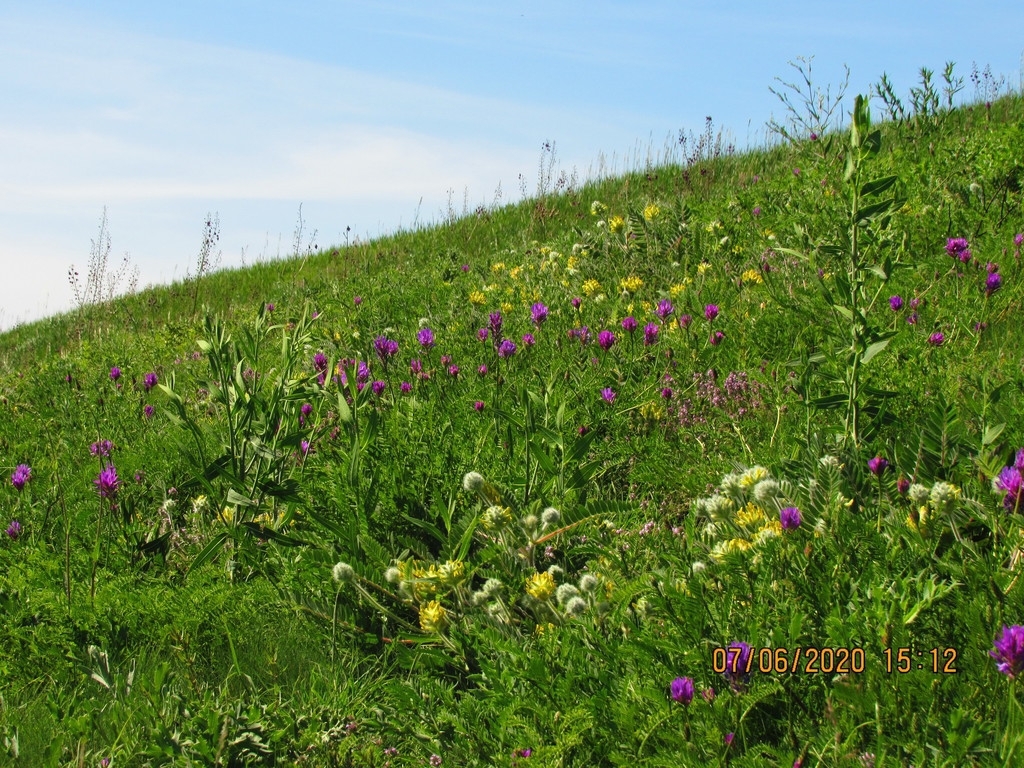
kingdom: Plantae
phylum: Tracheophyta
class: Magnoliopsida
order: Fabales
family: Fabaceae
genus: Astragalus
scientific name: Astragalus dasyanthus
